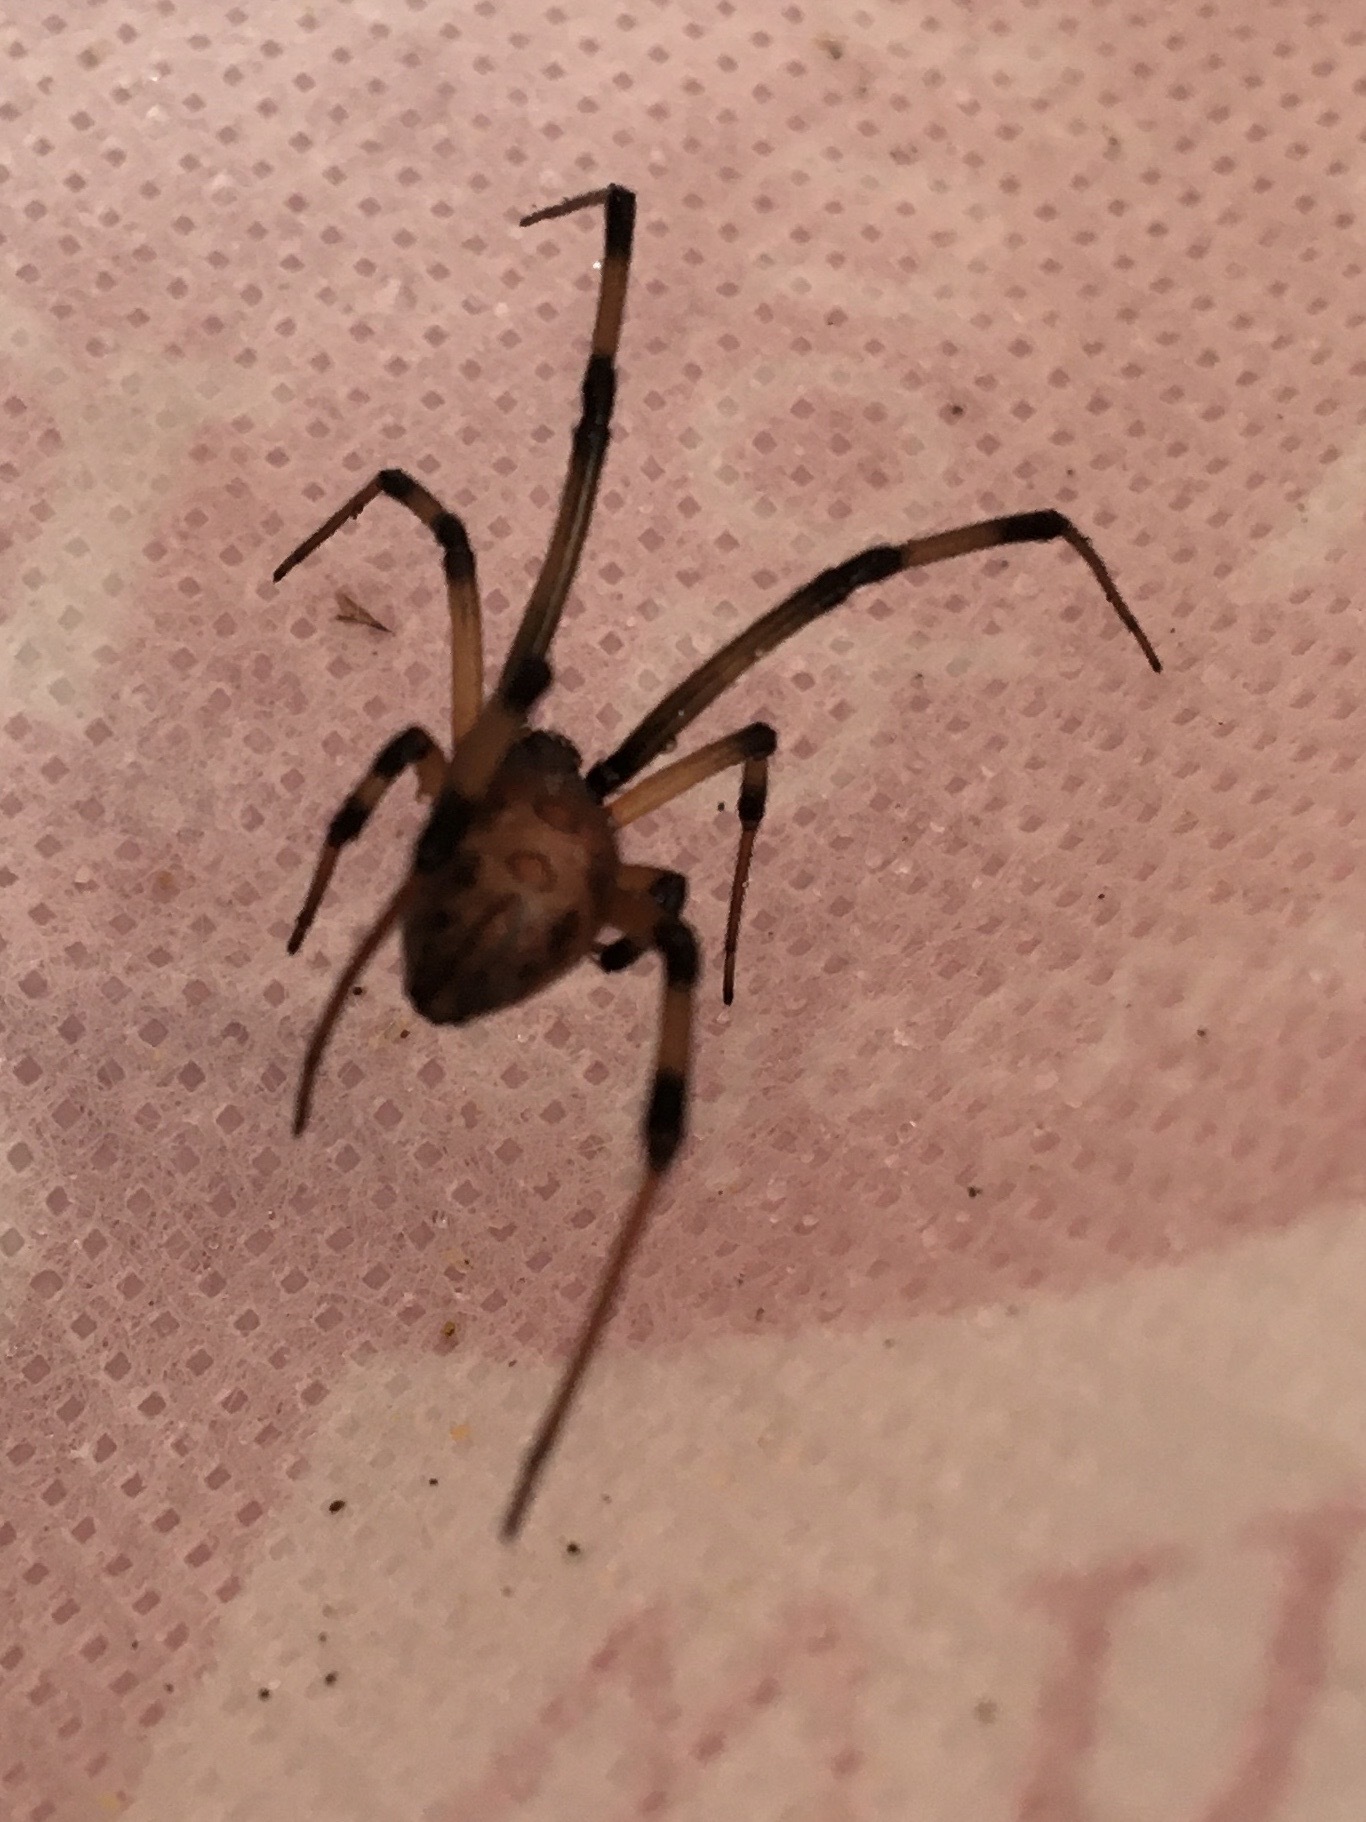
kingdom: Animalia
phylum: Arthropoda
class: Arachnida
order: Araneae
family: Theridiidae
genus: Latrodectus
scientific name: Latrodectus geometricus
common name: Brown widow spider
